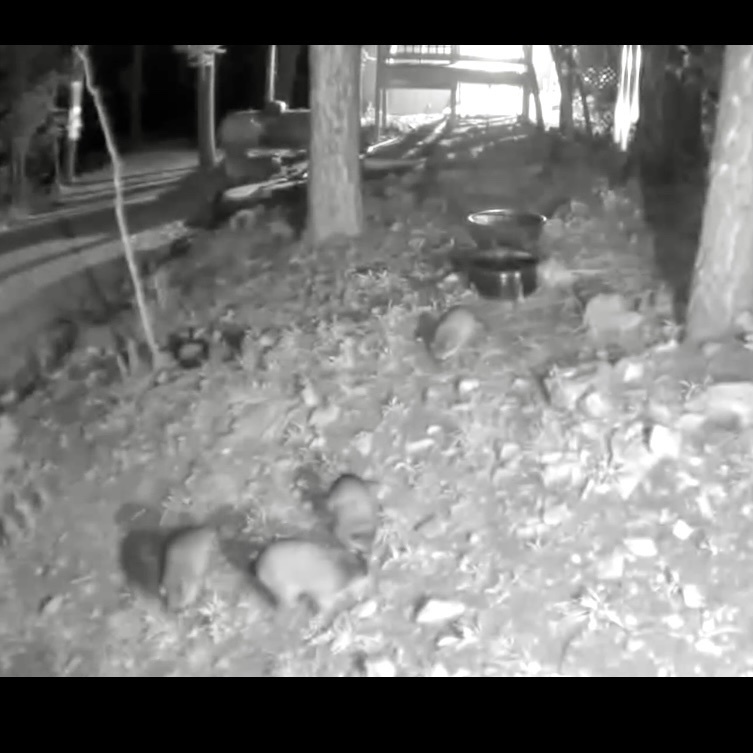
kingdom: Animalia
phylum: Chordata
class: Mammalia
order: Carnivora
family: Procyonidae
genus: Procyon
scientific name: Procyon lotor
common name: Raccoon
